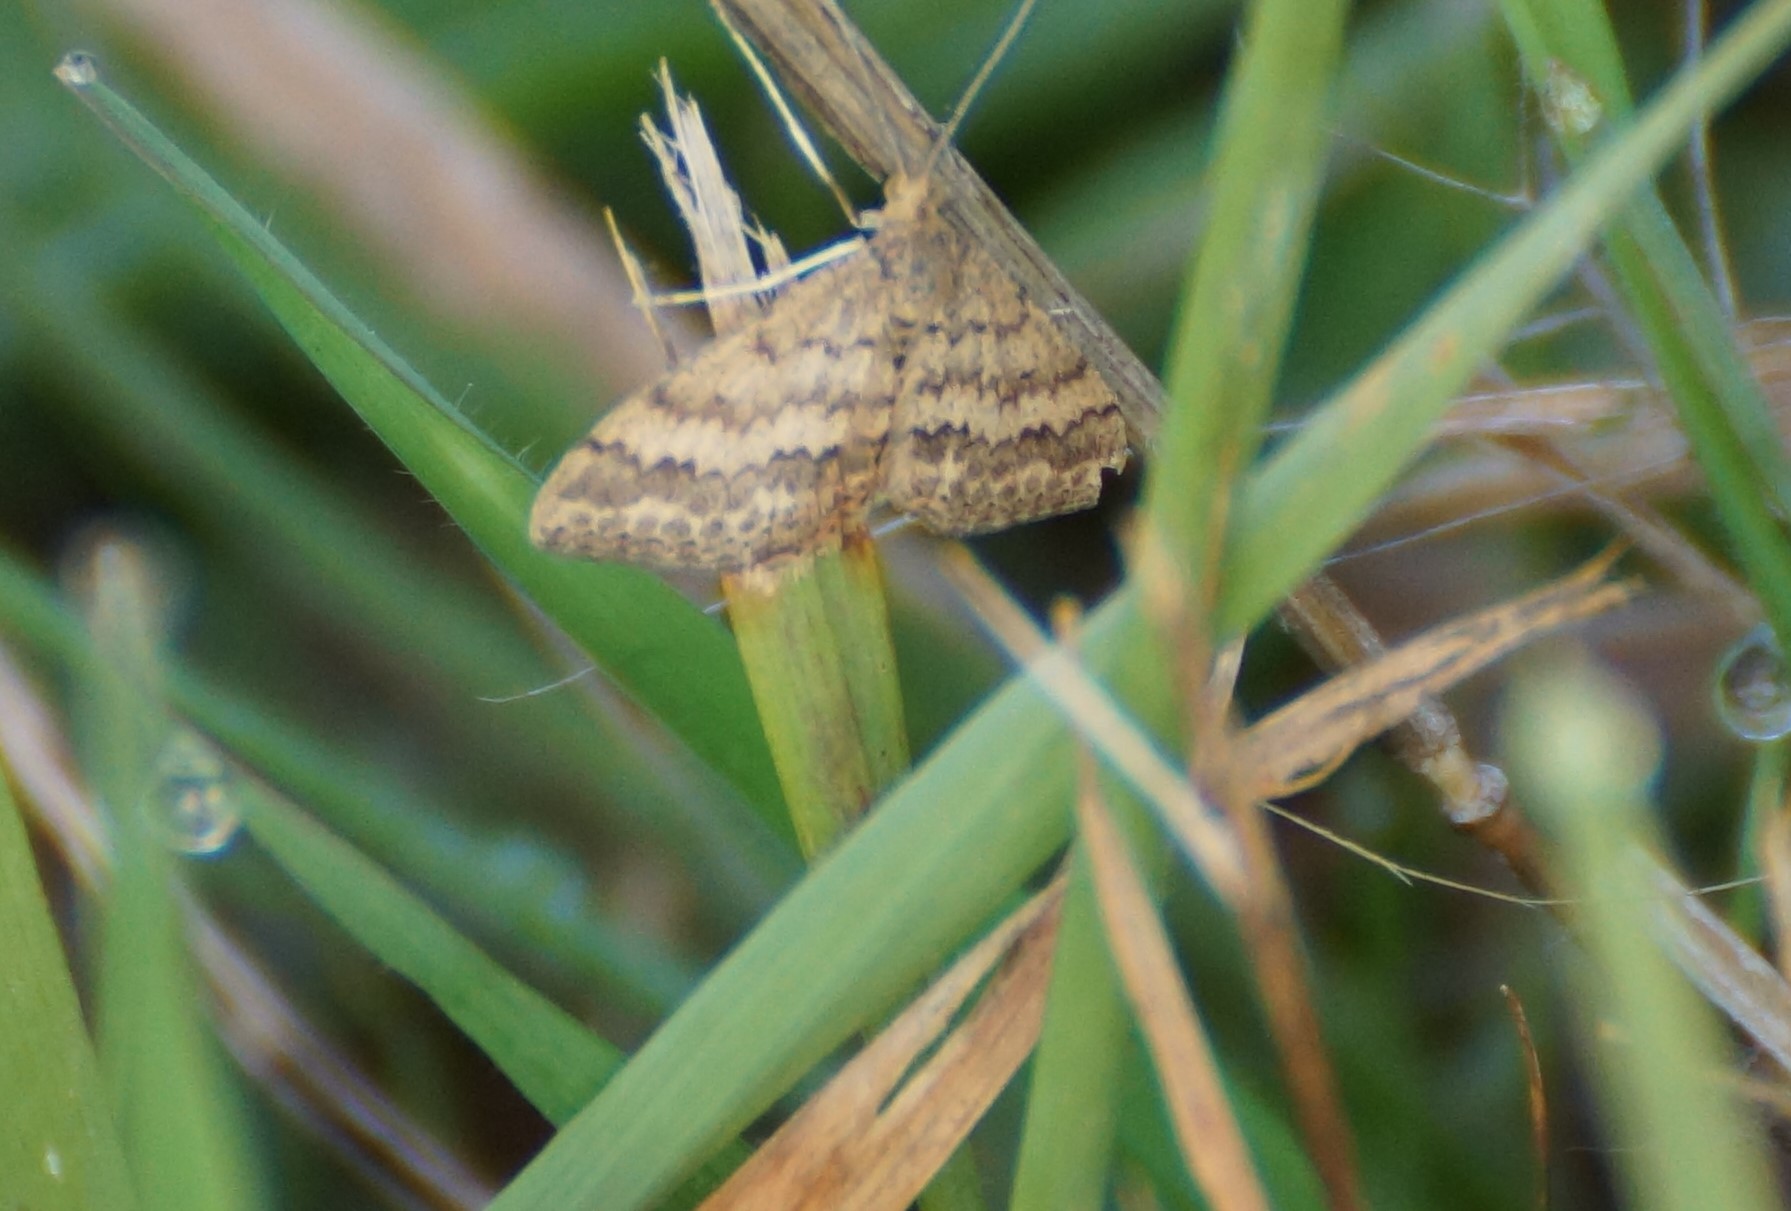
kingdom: Animalia
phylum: Arthropoda
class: Insecta
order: Lepidoptera
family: Geometridae
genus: Scopula
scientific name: Scopula rubraria
